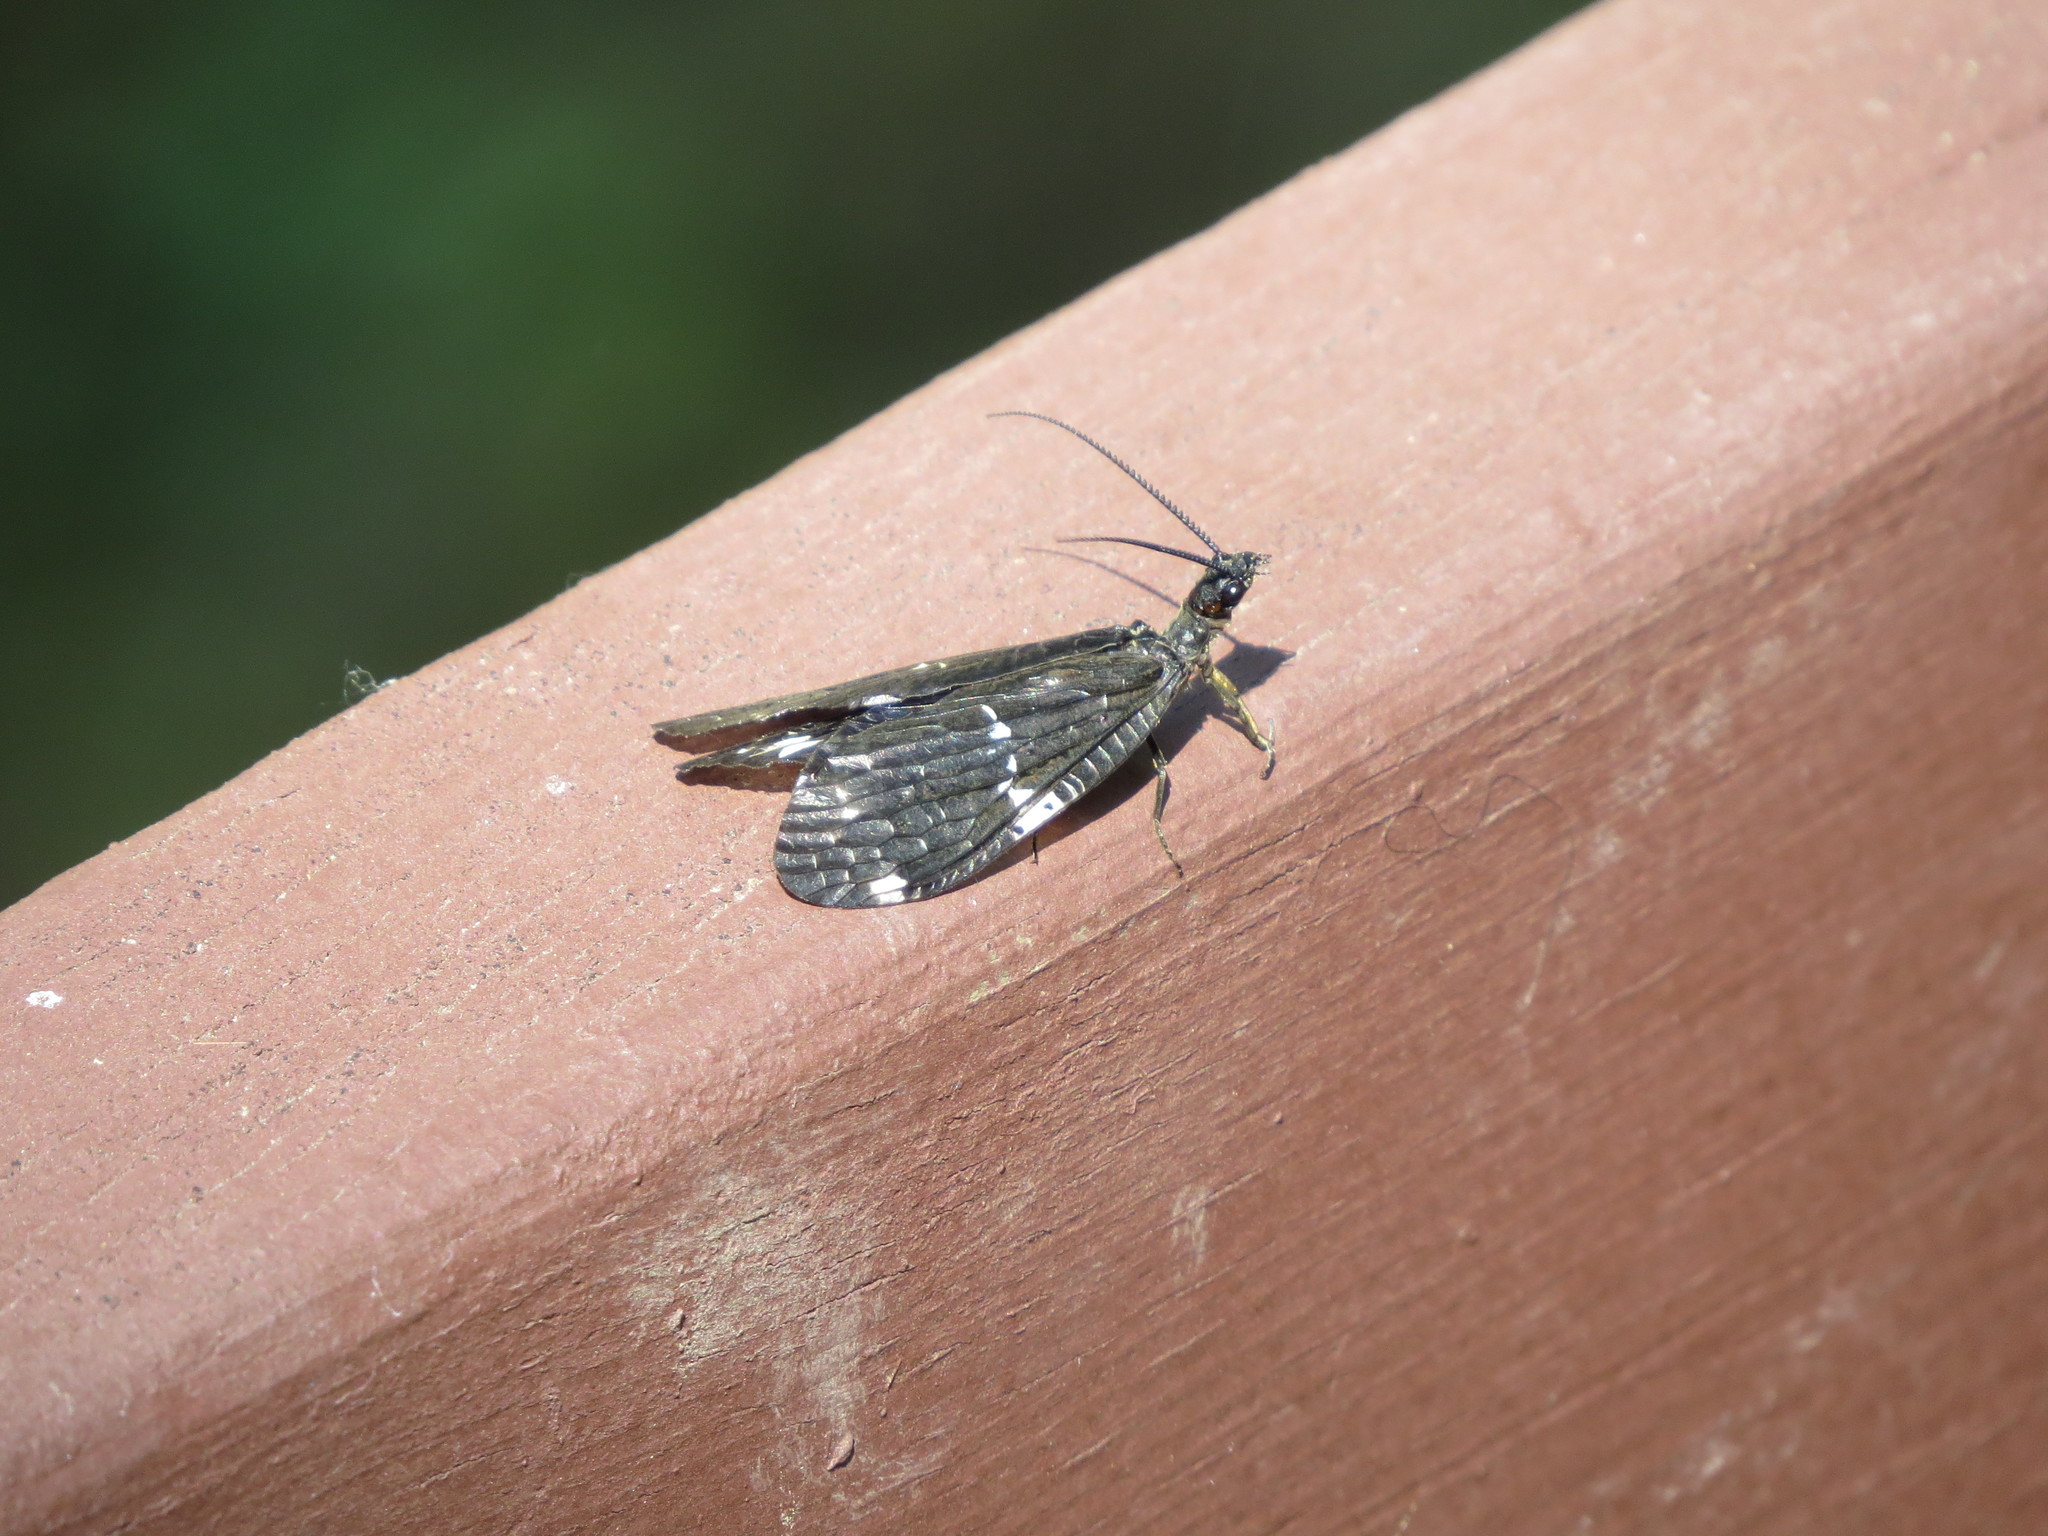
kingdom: Animalia
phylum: Arthropoda
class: Insecta
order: Megaloptera
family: Corydalidae
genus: Nigronia
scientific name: Nigronia serricornis
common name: Serrate dark fishfly
